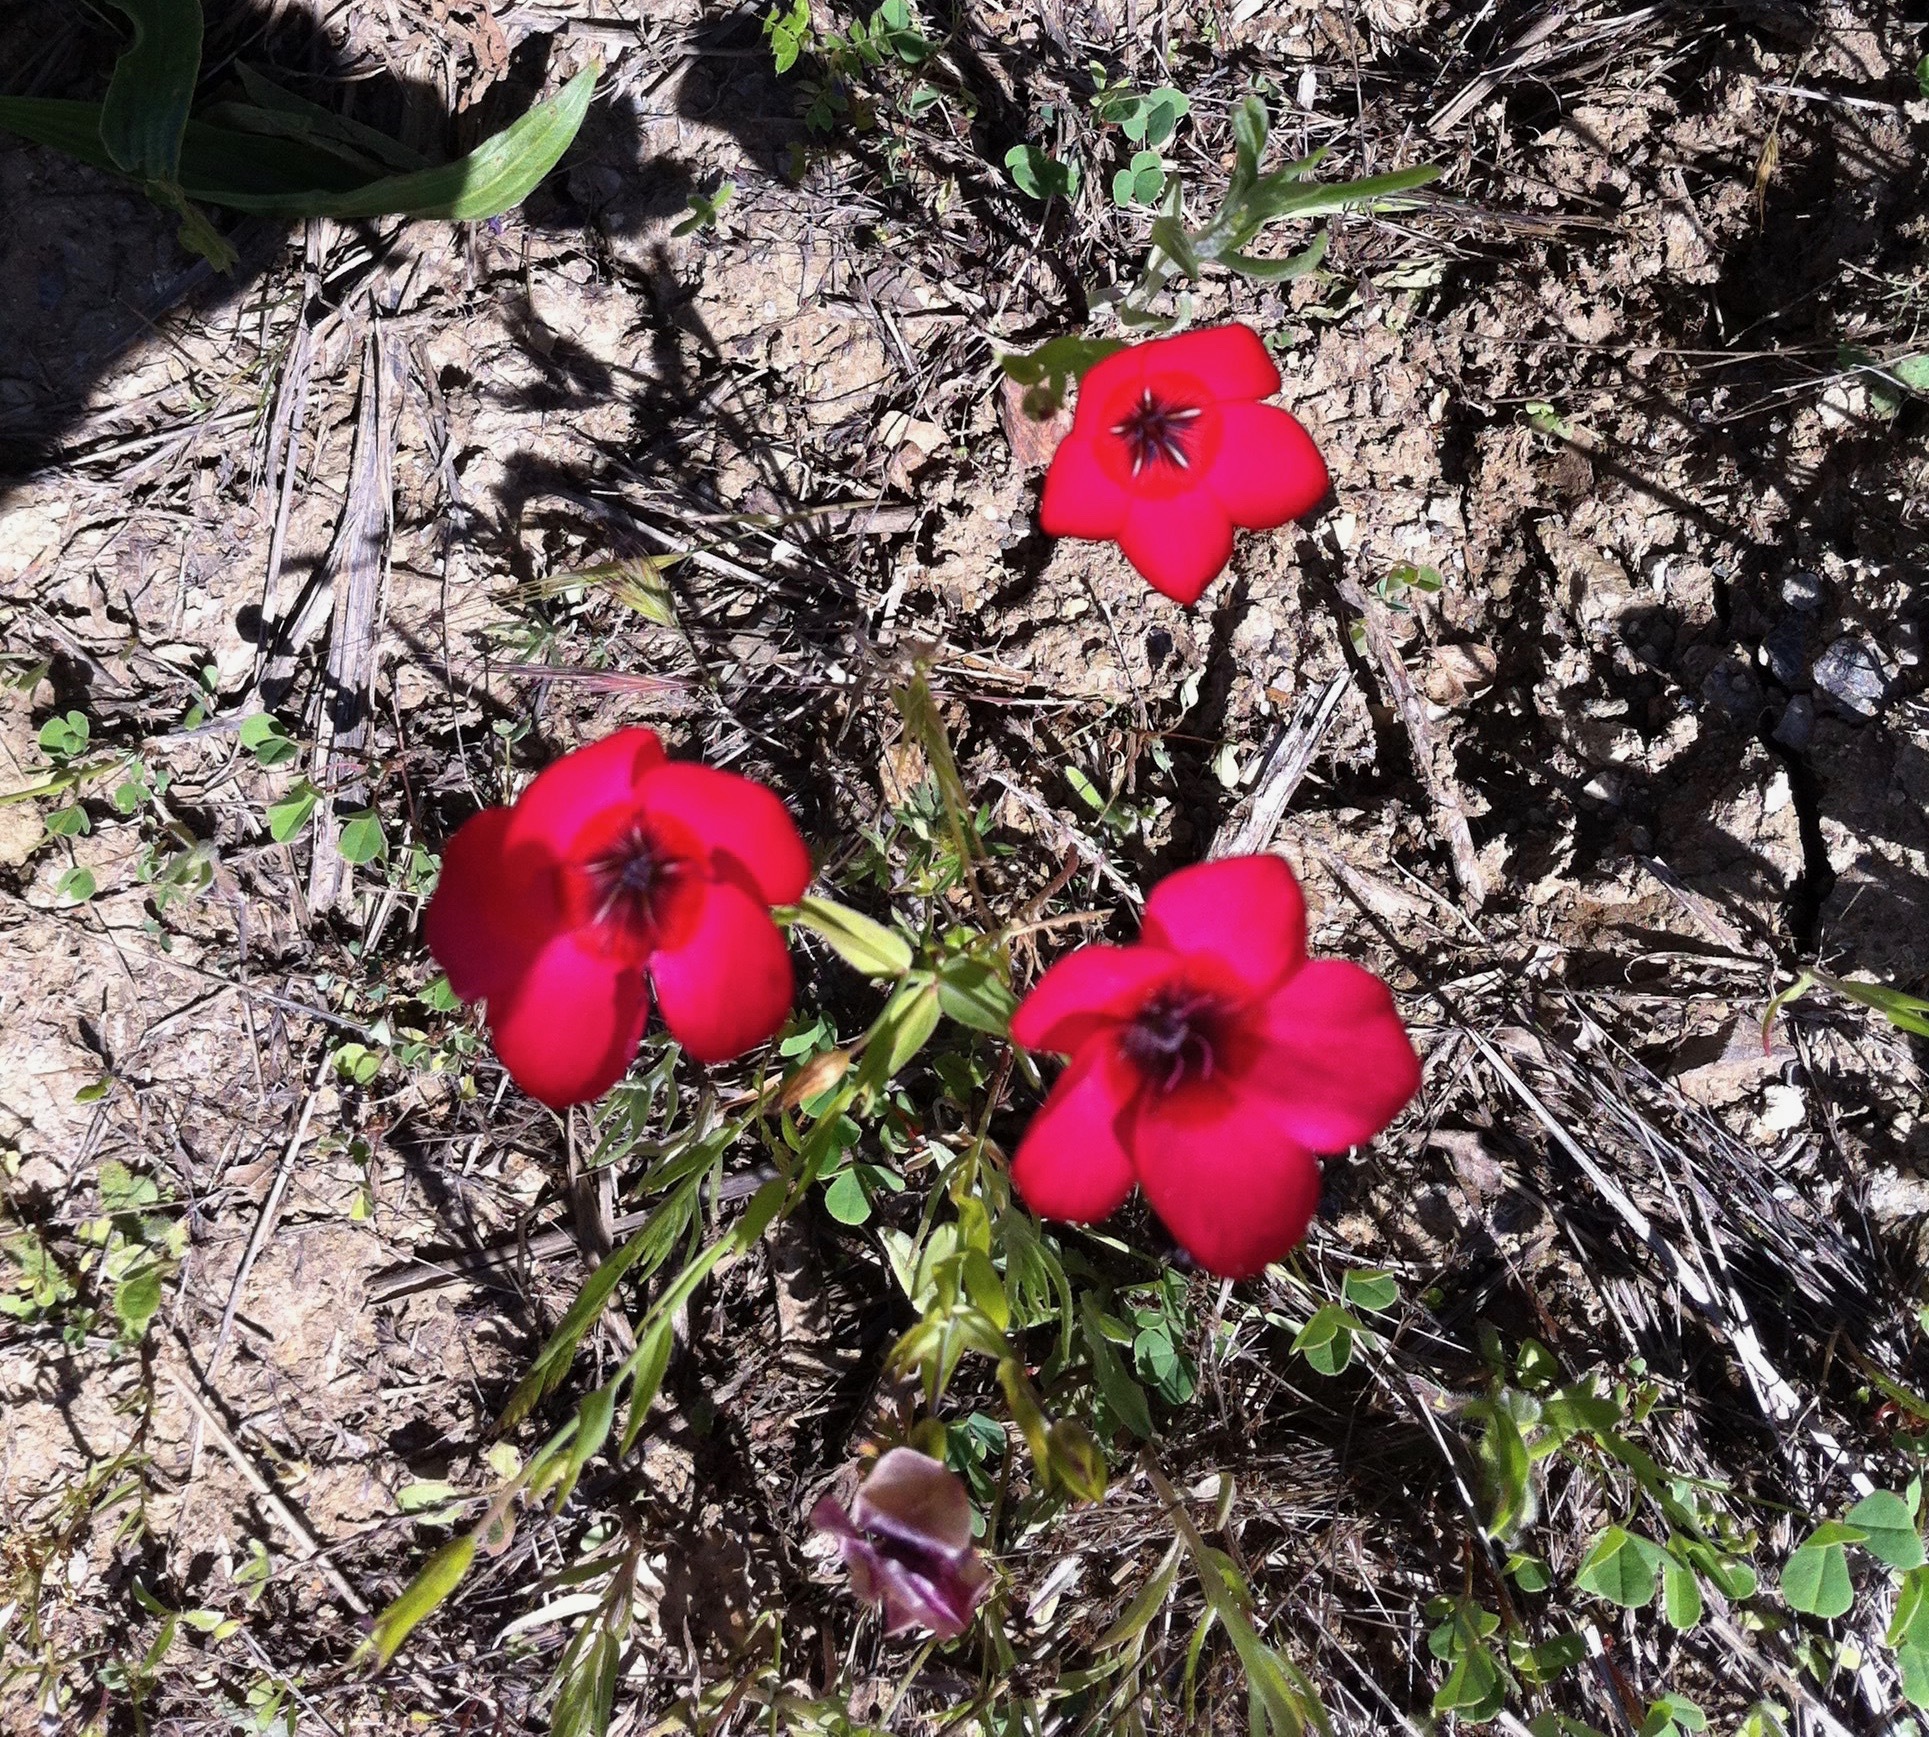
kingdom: Plantae
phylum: Tracheophyta
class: Magnoliopsida
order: Malpighiales
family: Linaceae
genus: Linum
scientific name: Linum grandiflorum
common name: Crimson flax
